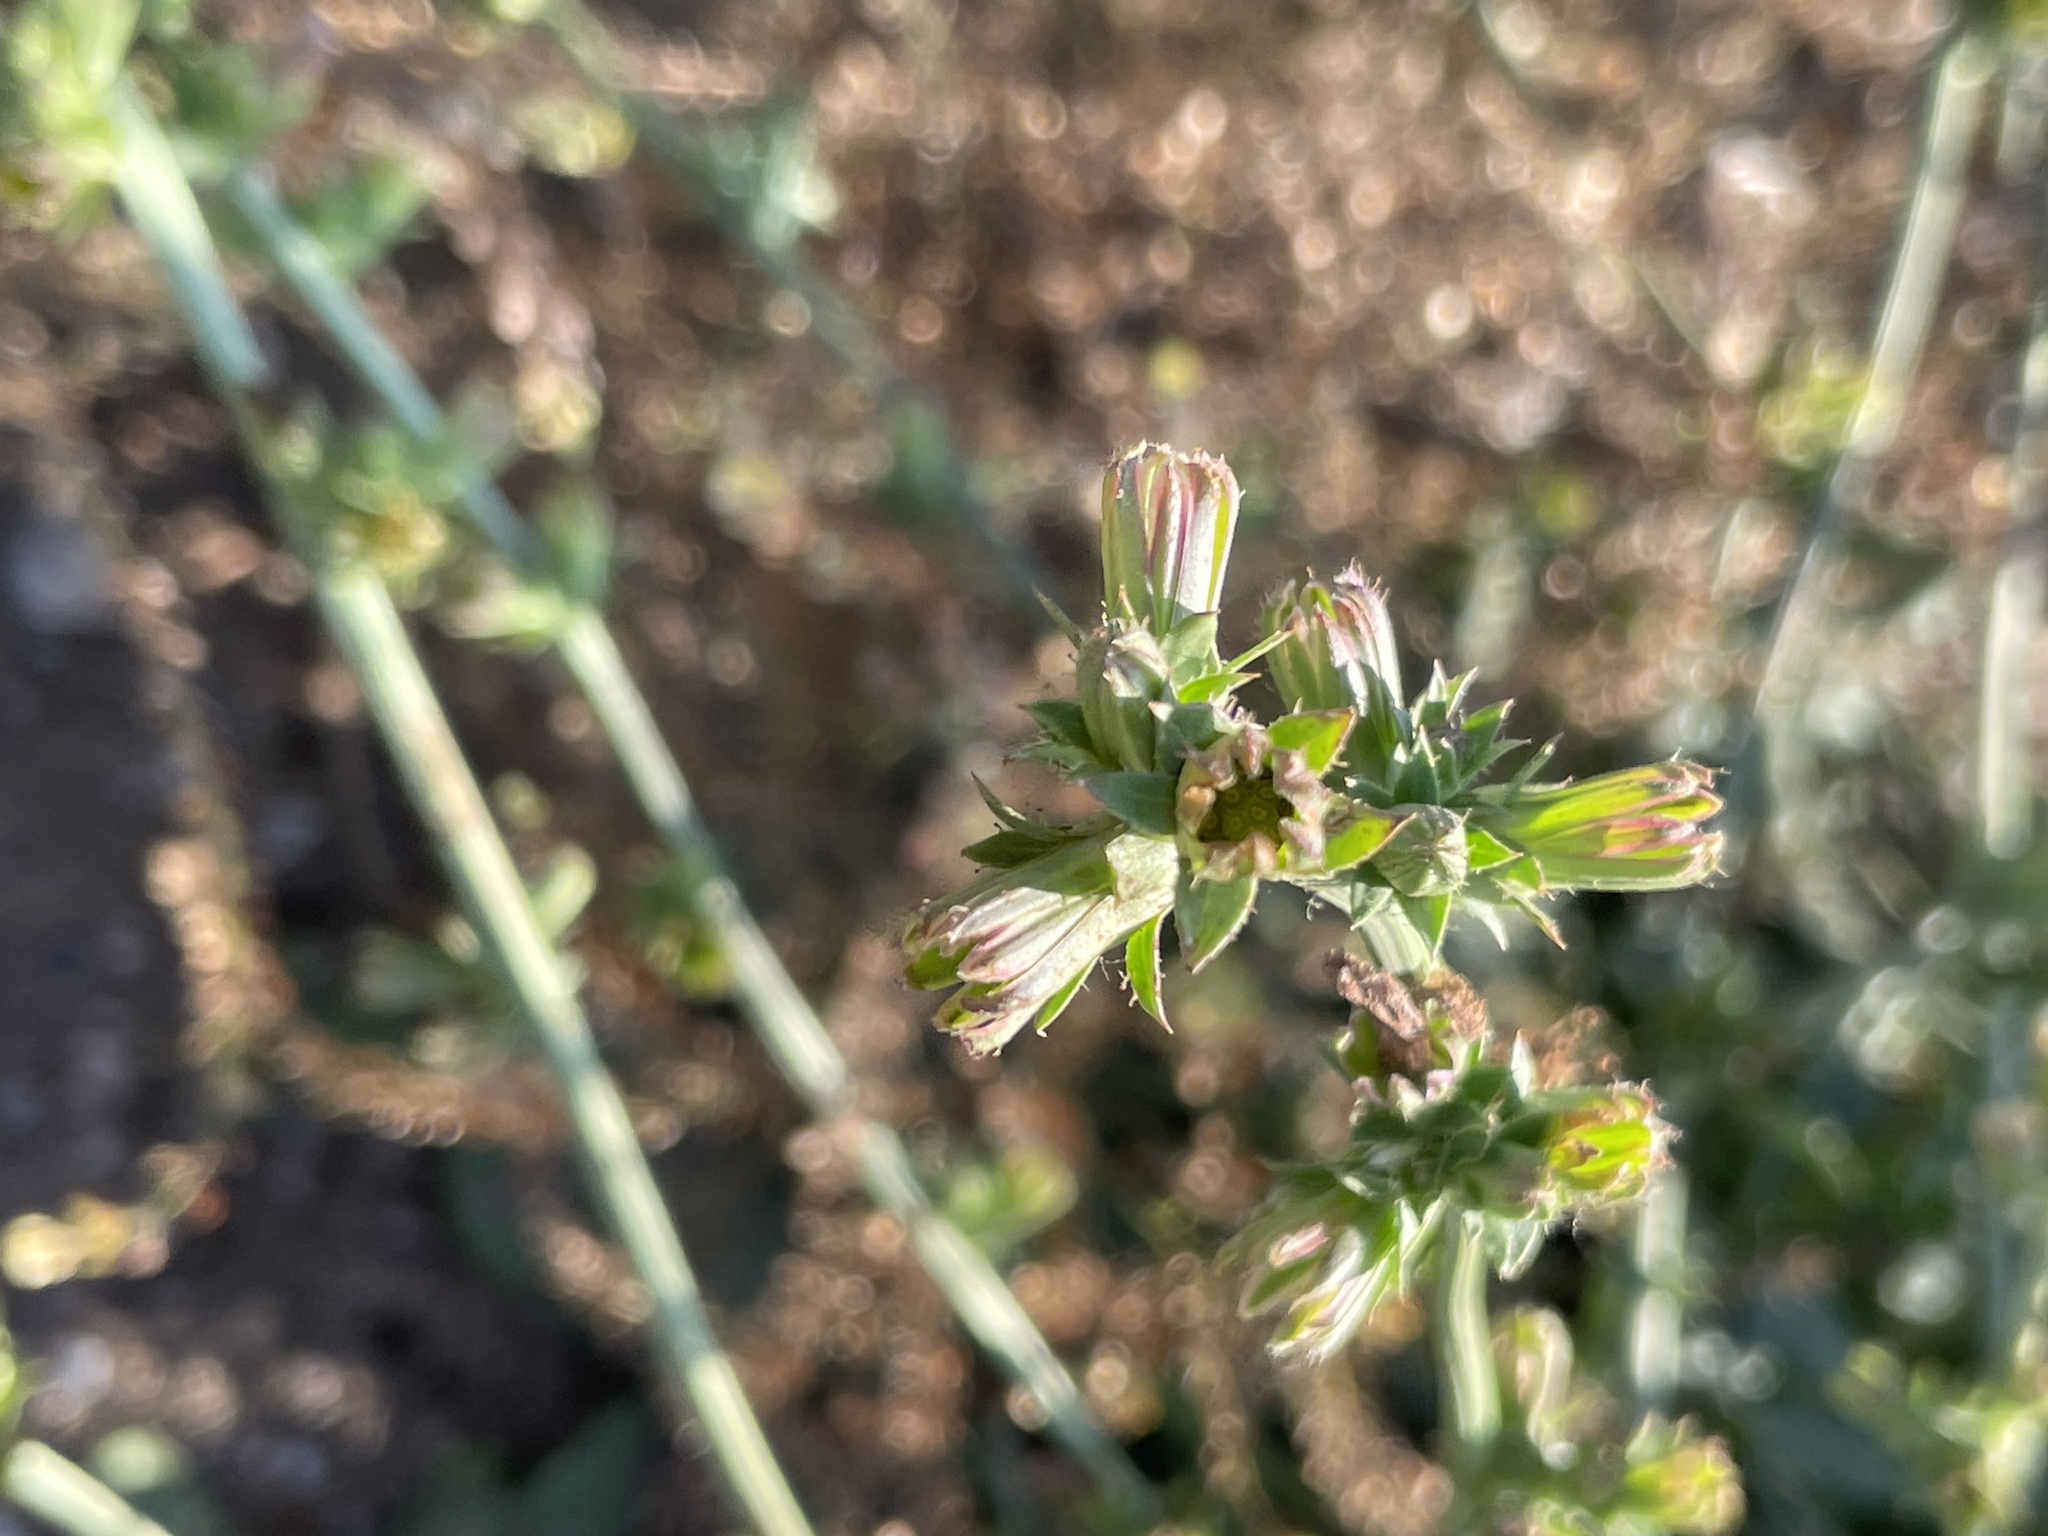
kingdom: Plantae
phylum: Tracheophyta
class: Magnoliopsida
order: Asterales
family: Asteraceae
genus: Cichorium
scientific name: Cichorium intybus
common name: Chicory
